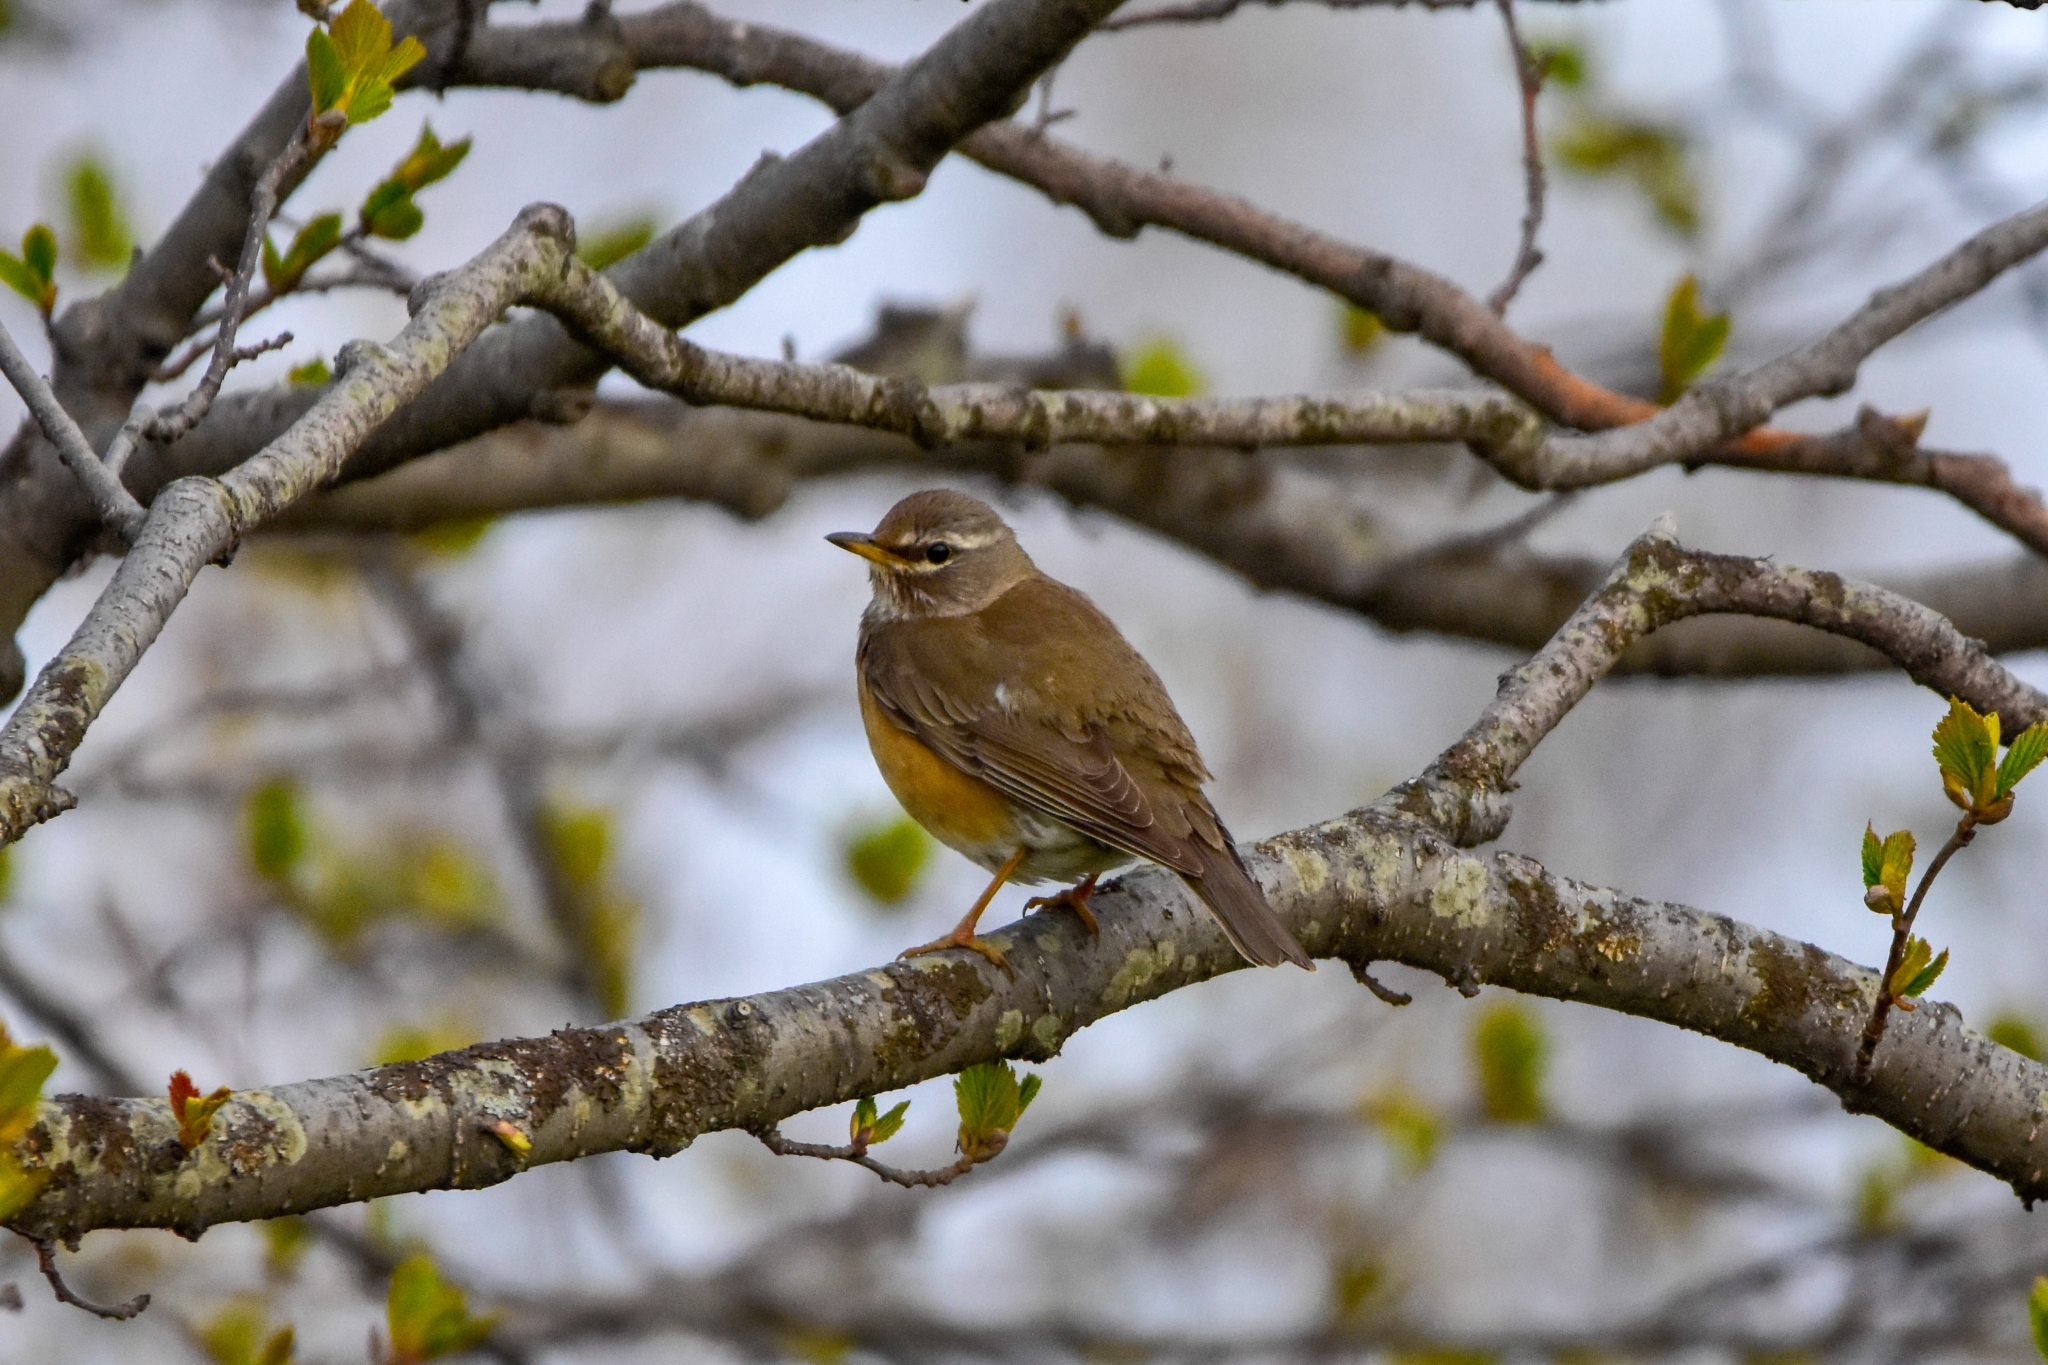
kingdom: Animalia
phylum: Chordata
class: Aves
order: Passeriformes
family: Turdidae
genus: Turdus
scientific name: Turdus obscurus
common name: Eyebrowed thrush
